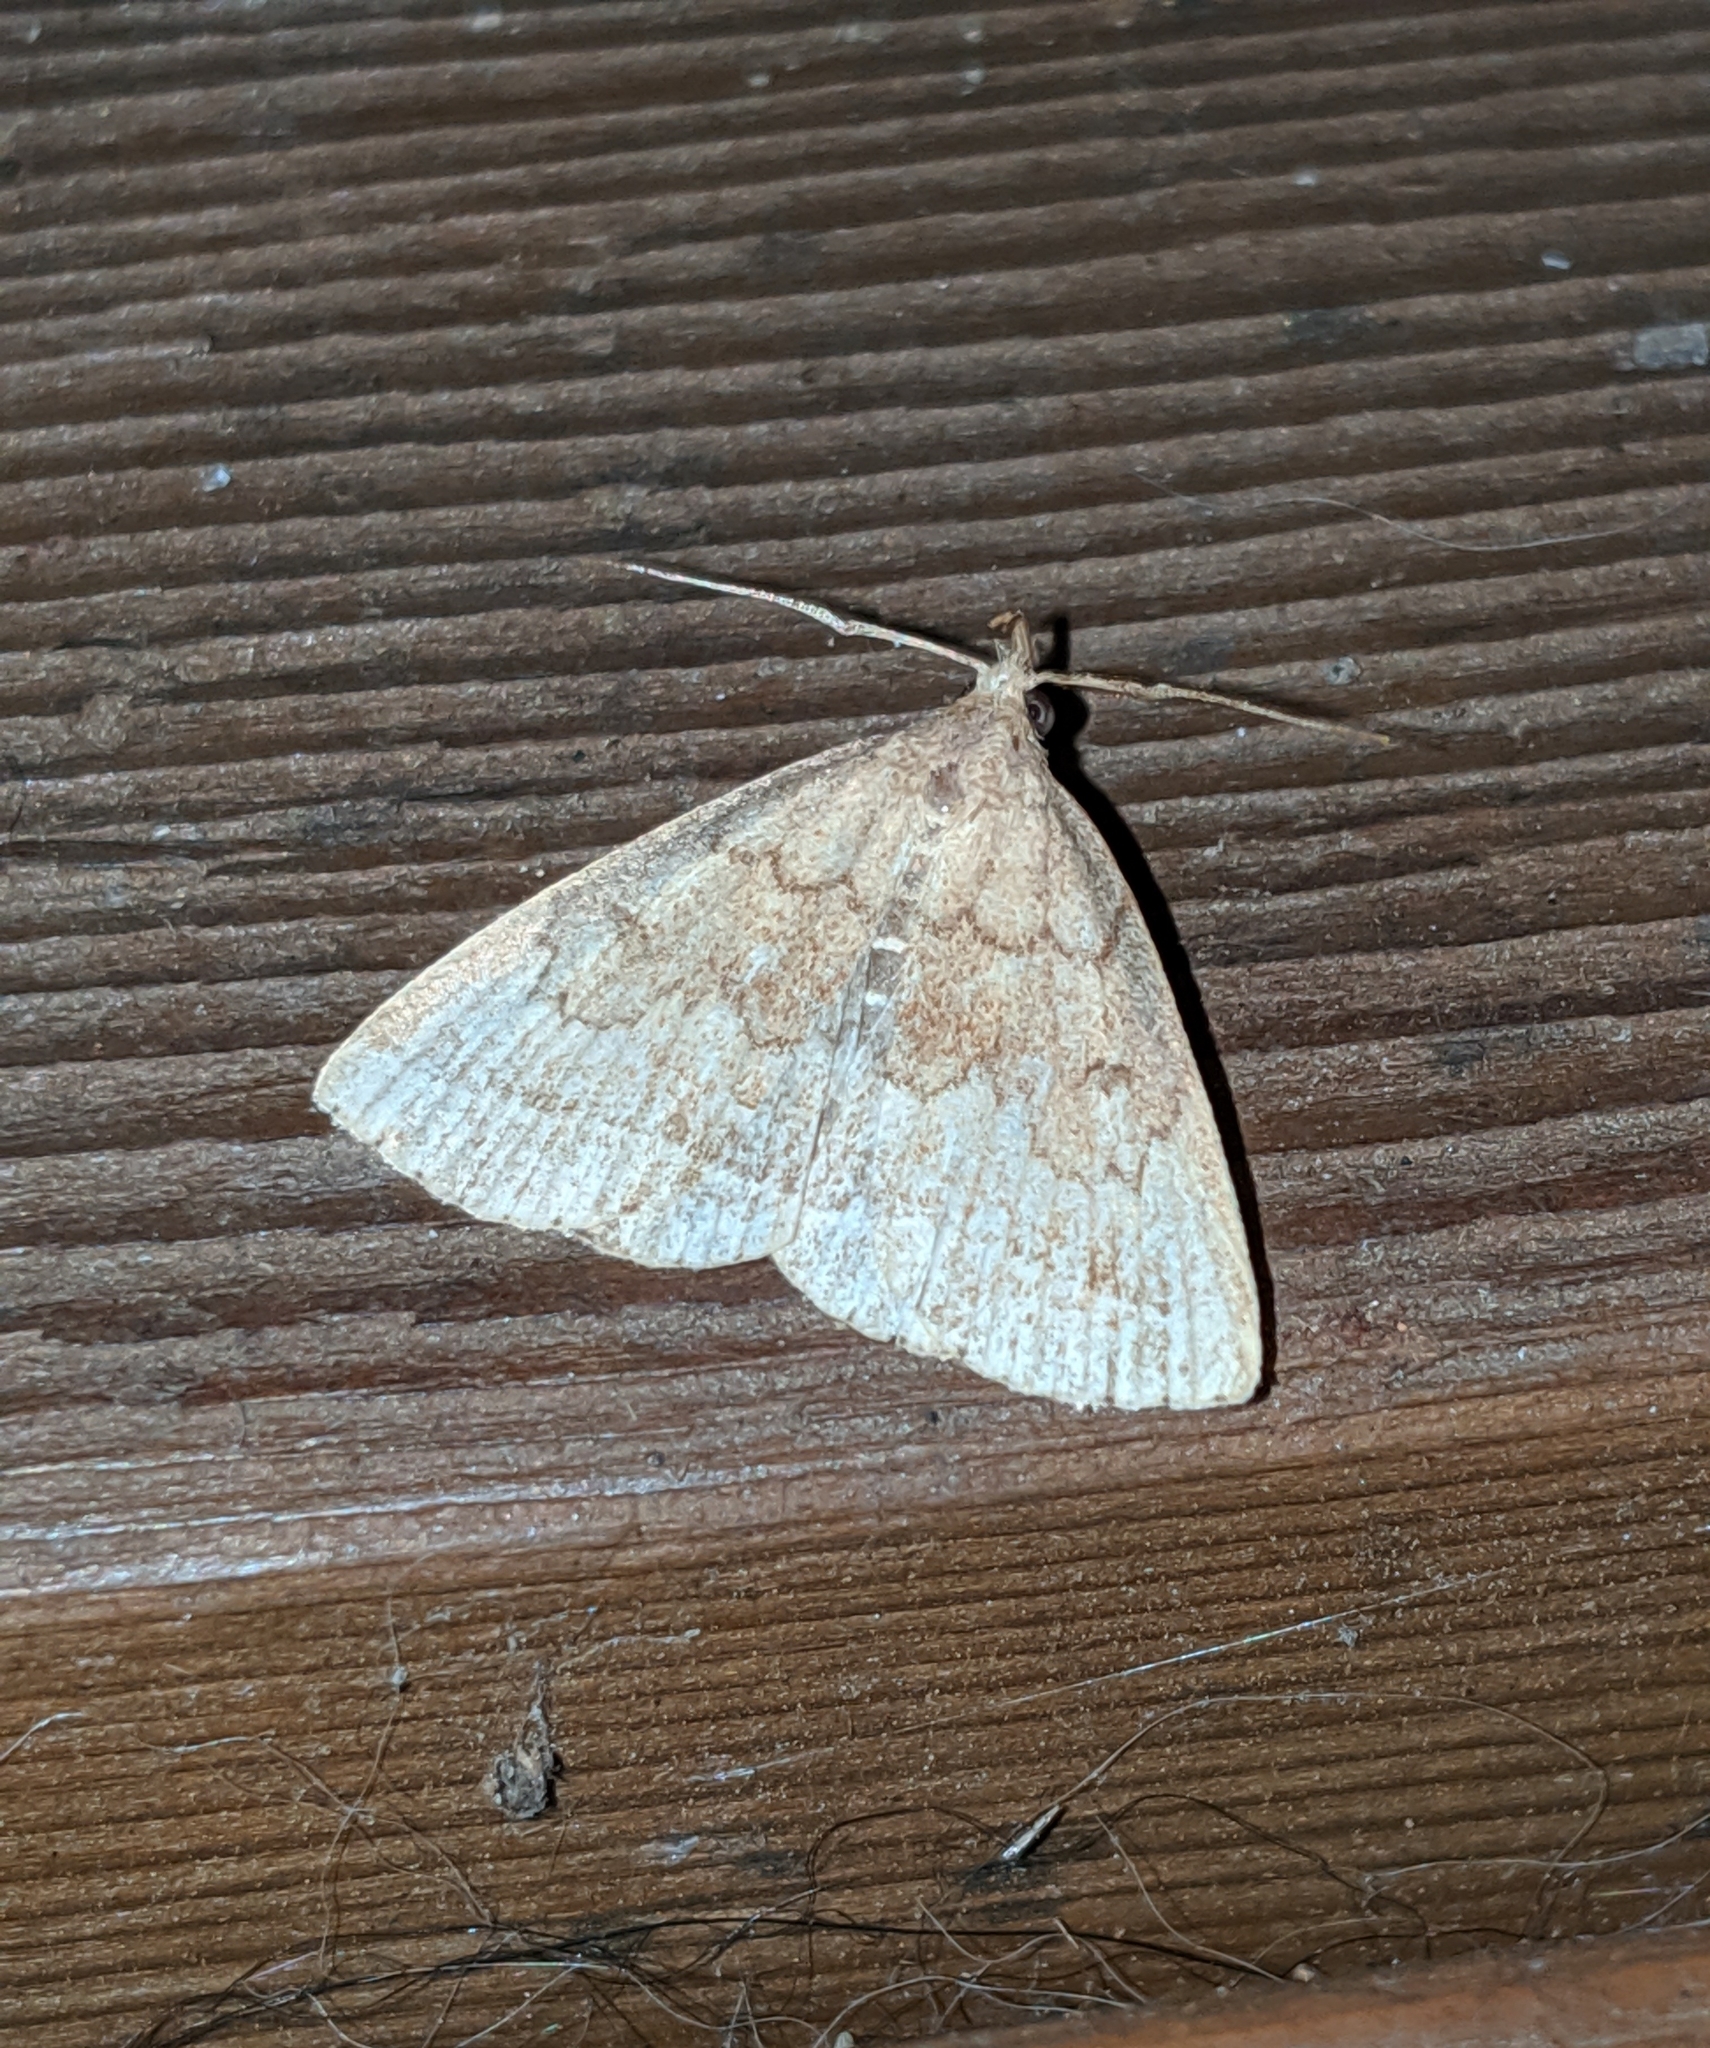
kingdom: Animalia
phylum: Arthropoda
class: Insecta
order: Lepidoptera
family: Erebidae
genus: Zanclognatha
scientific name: Zanclognatha jacchusalis
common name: Yellowish zanclognatha
